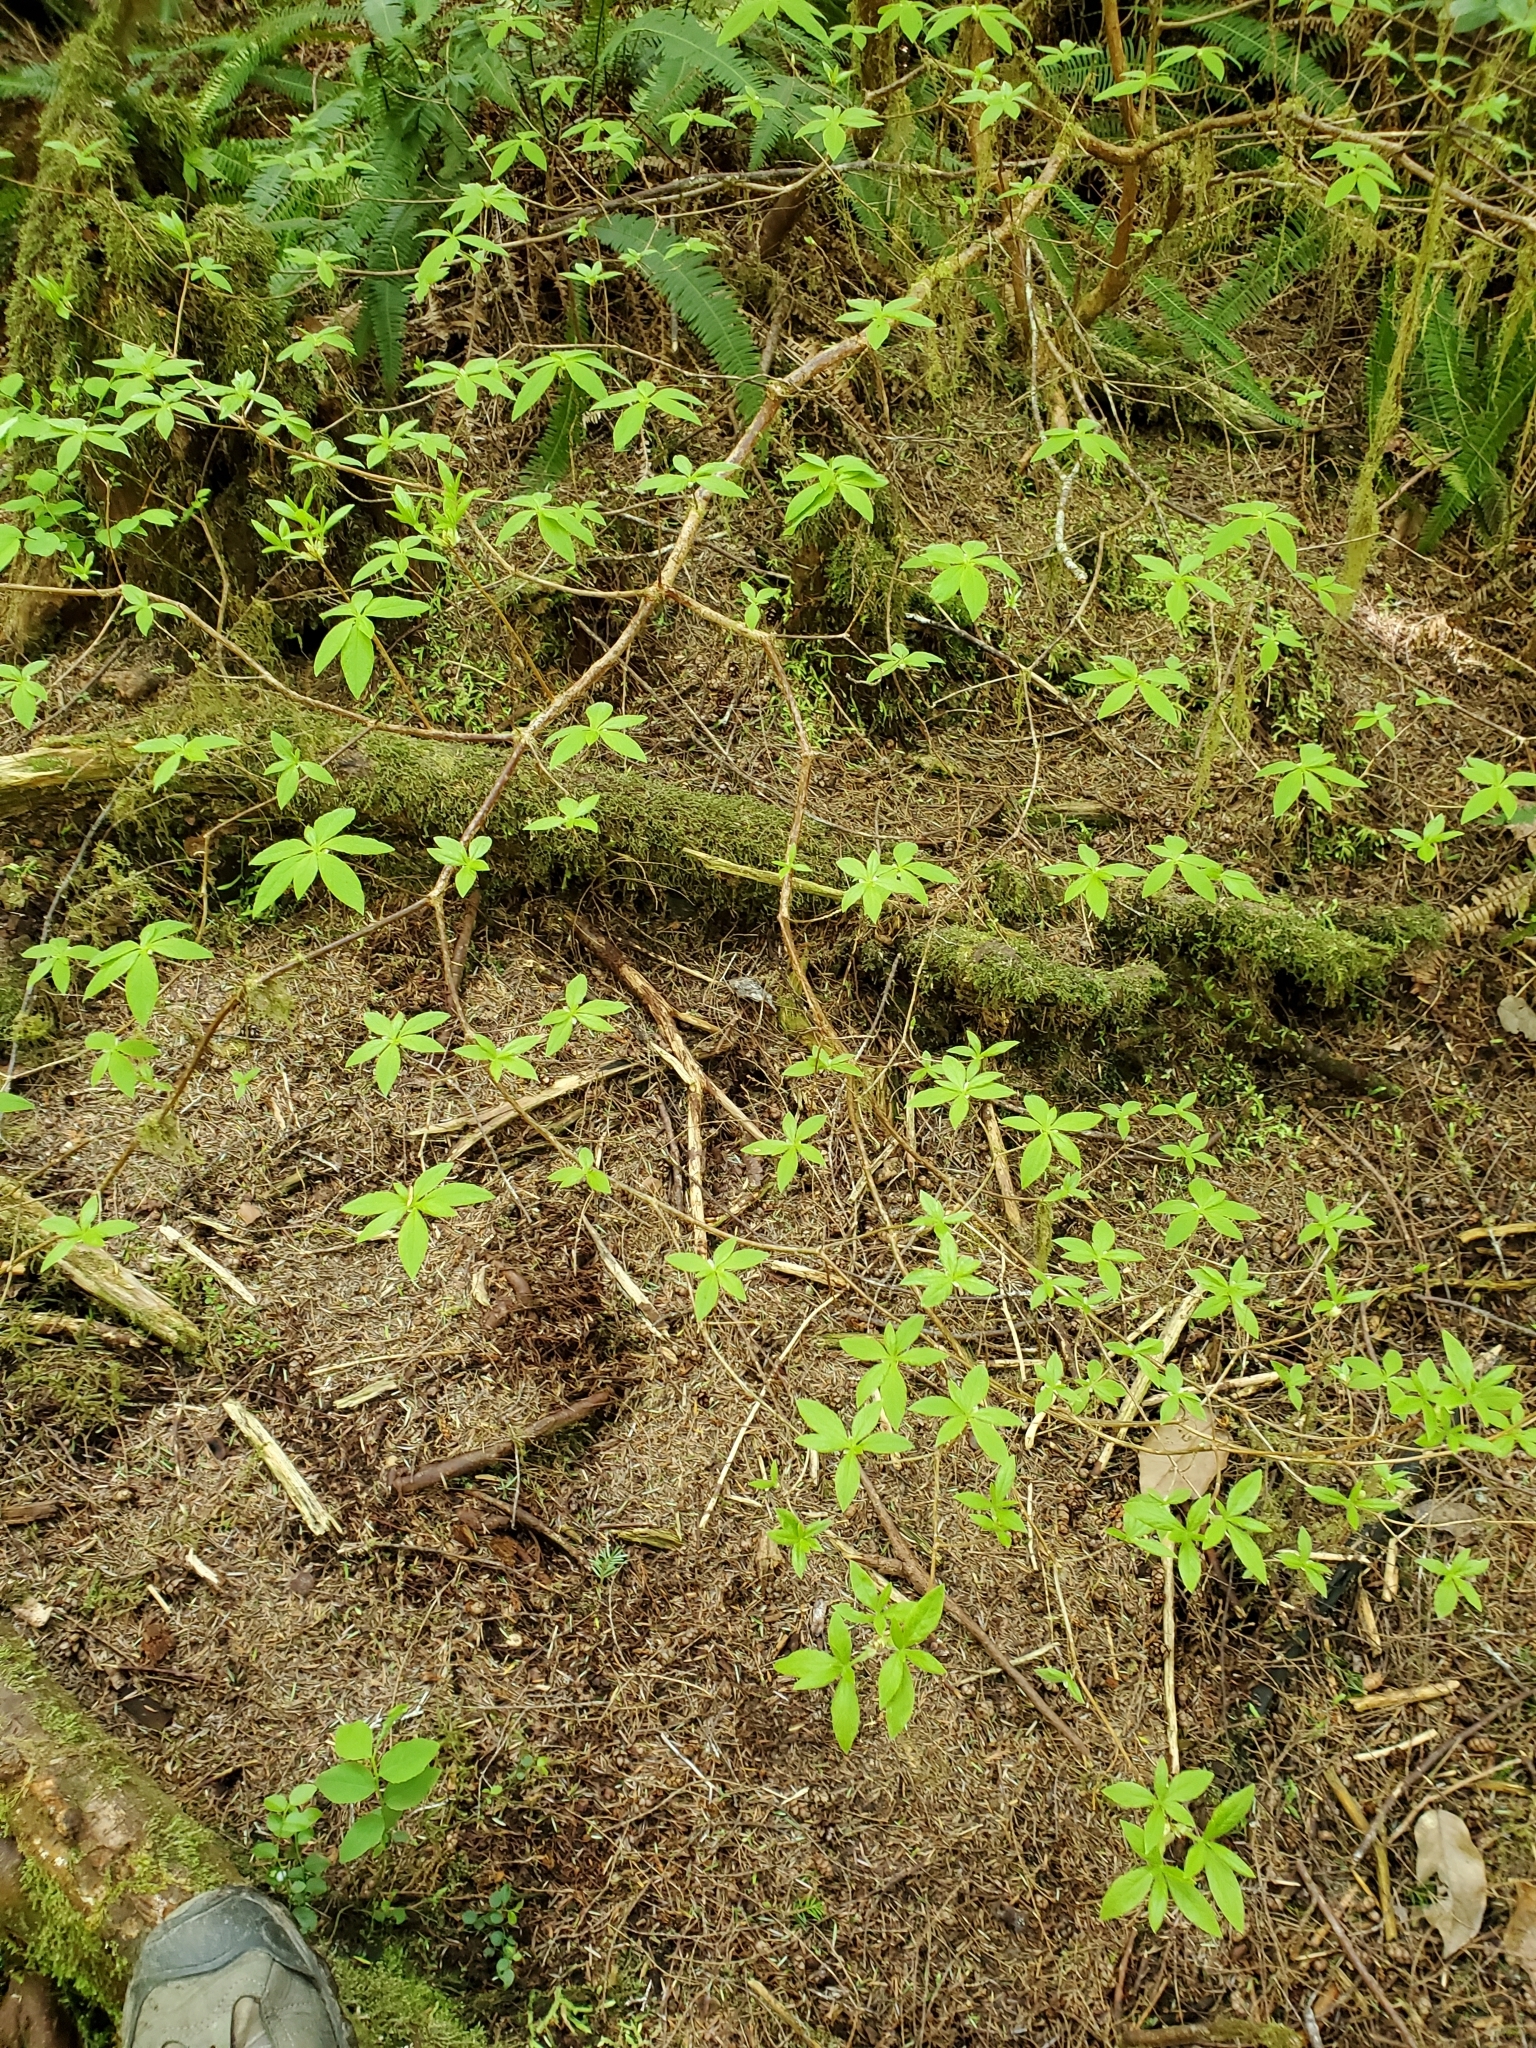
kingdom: Plantae
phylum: Tracheophyta
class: Magnoliopsida
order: Ericales
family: Ericaceae
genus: Rhododendron
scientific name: Rhododendron menziesii
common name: Pacific menziesia
